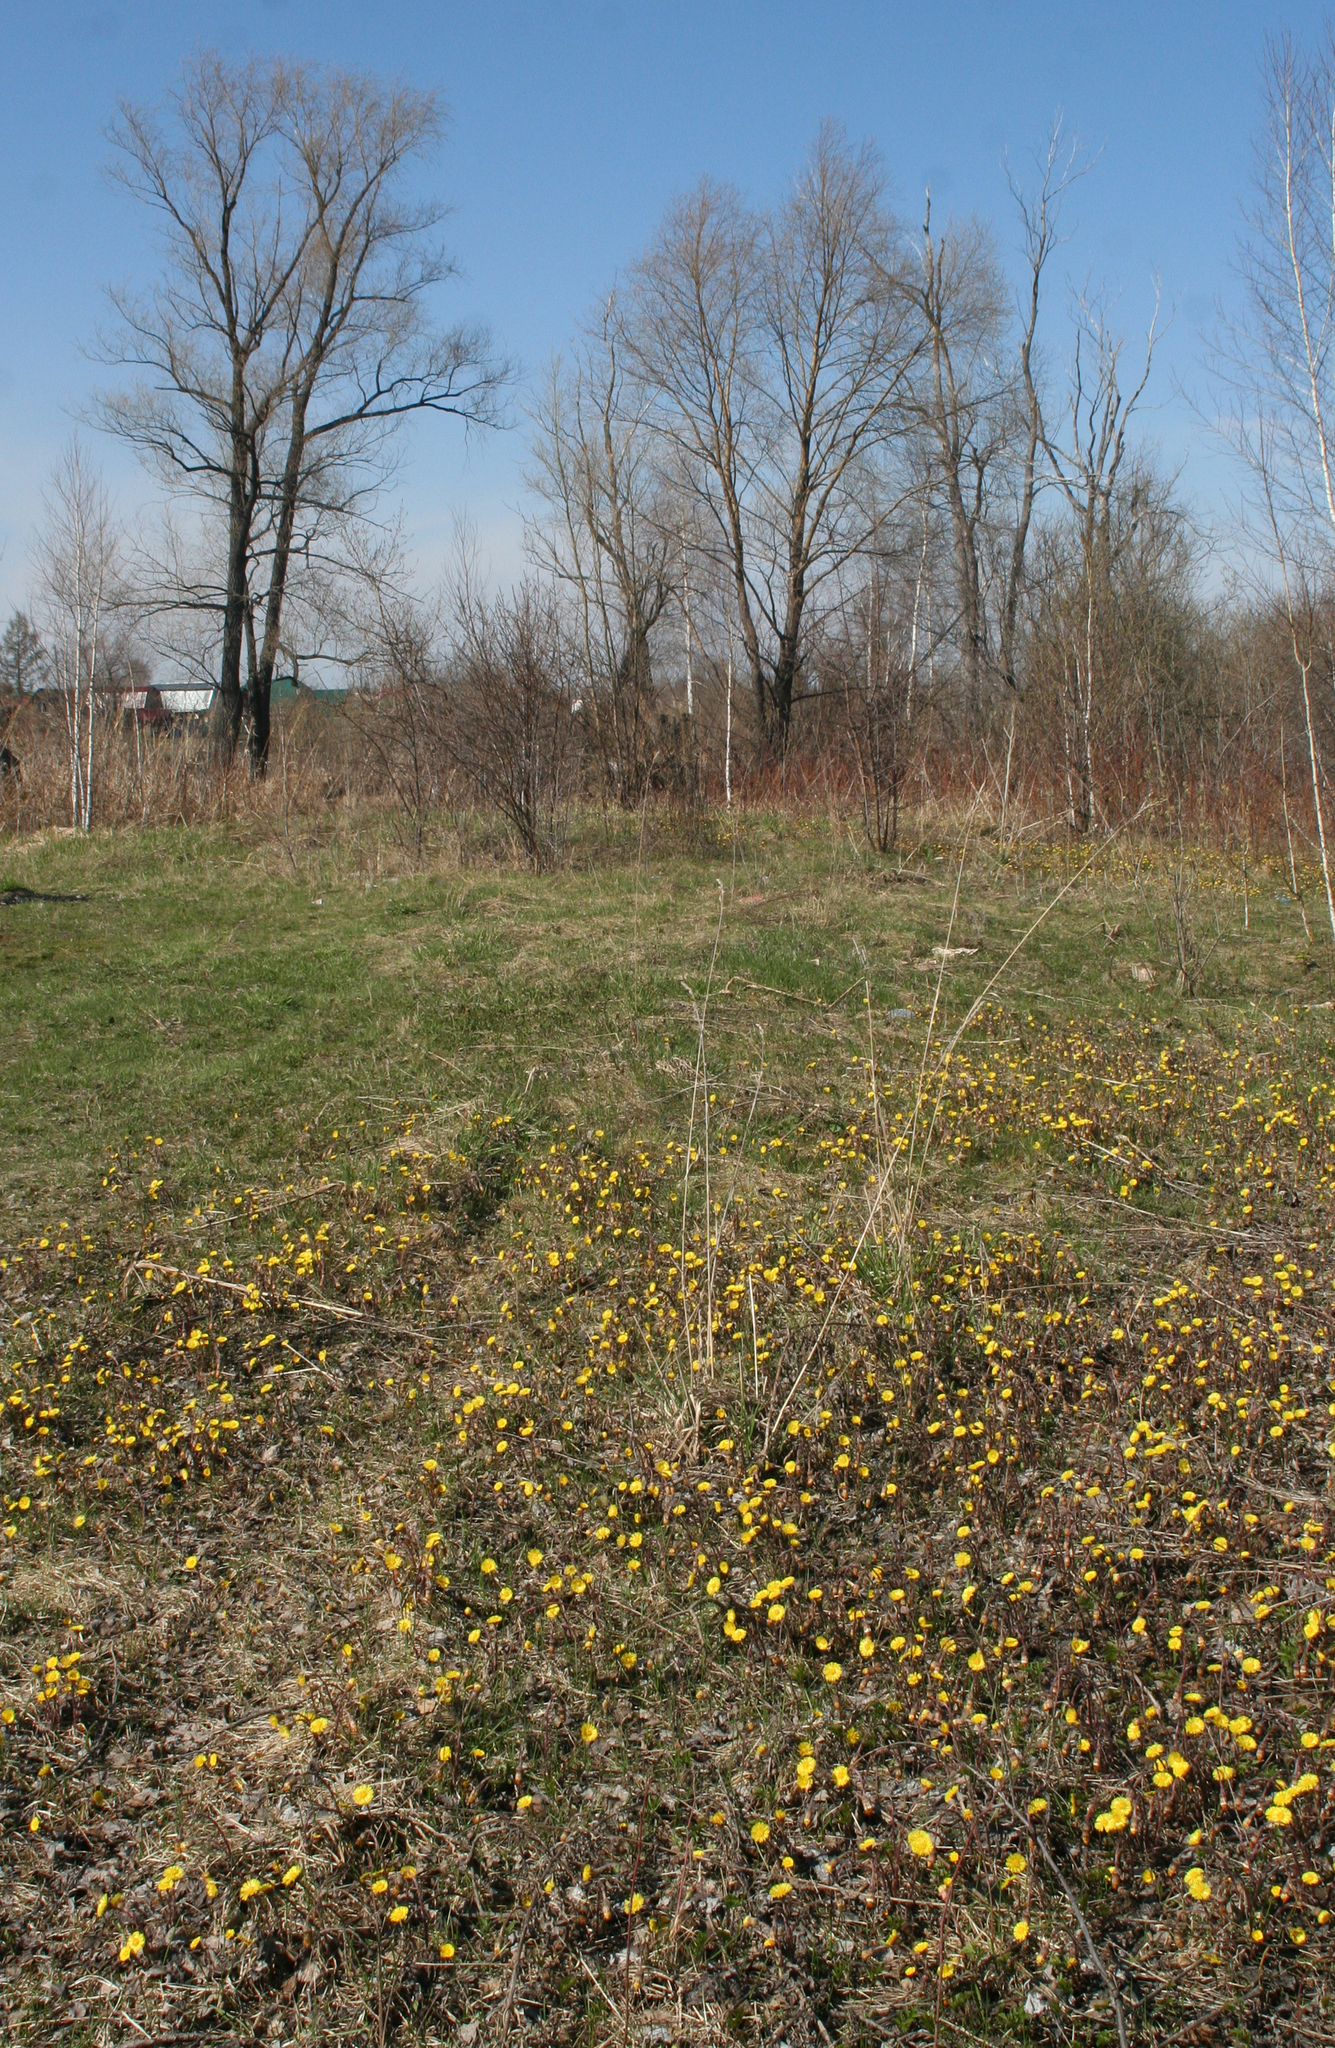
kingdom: Plantae
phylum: Tracheophyta
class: Magnoliopsida
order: Asterales
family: Asteraceae
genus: Tussilago
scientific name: Tussilago farfara
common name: Coltsfoot
